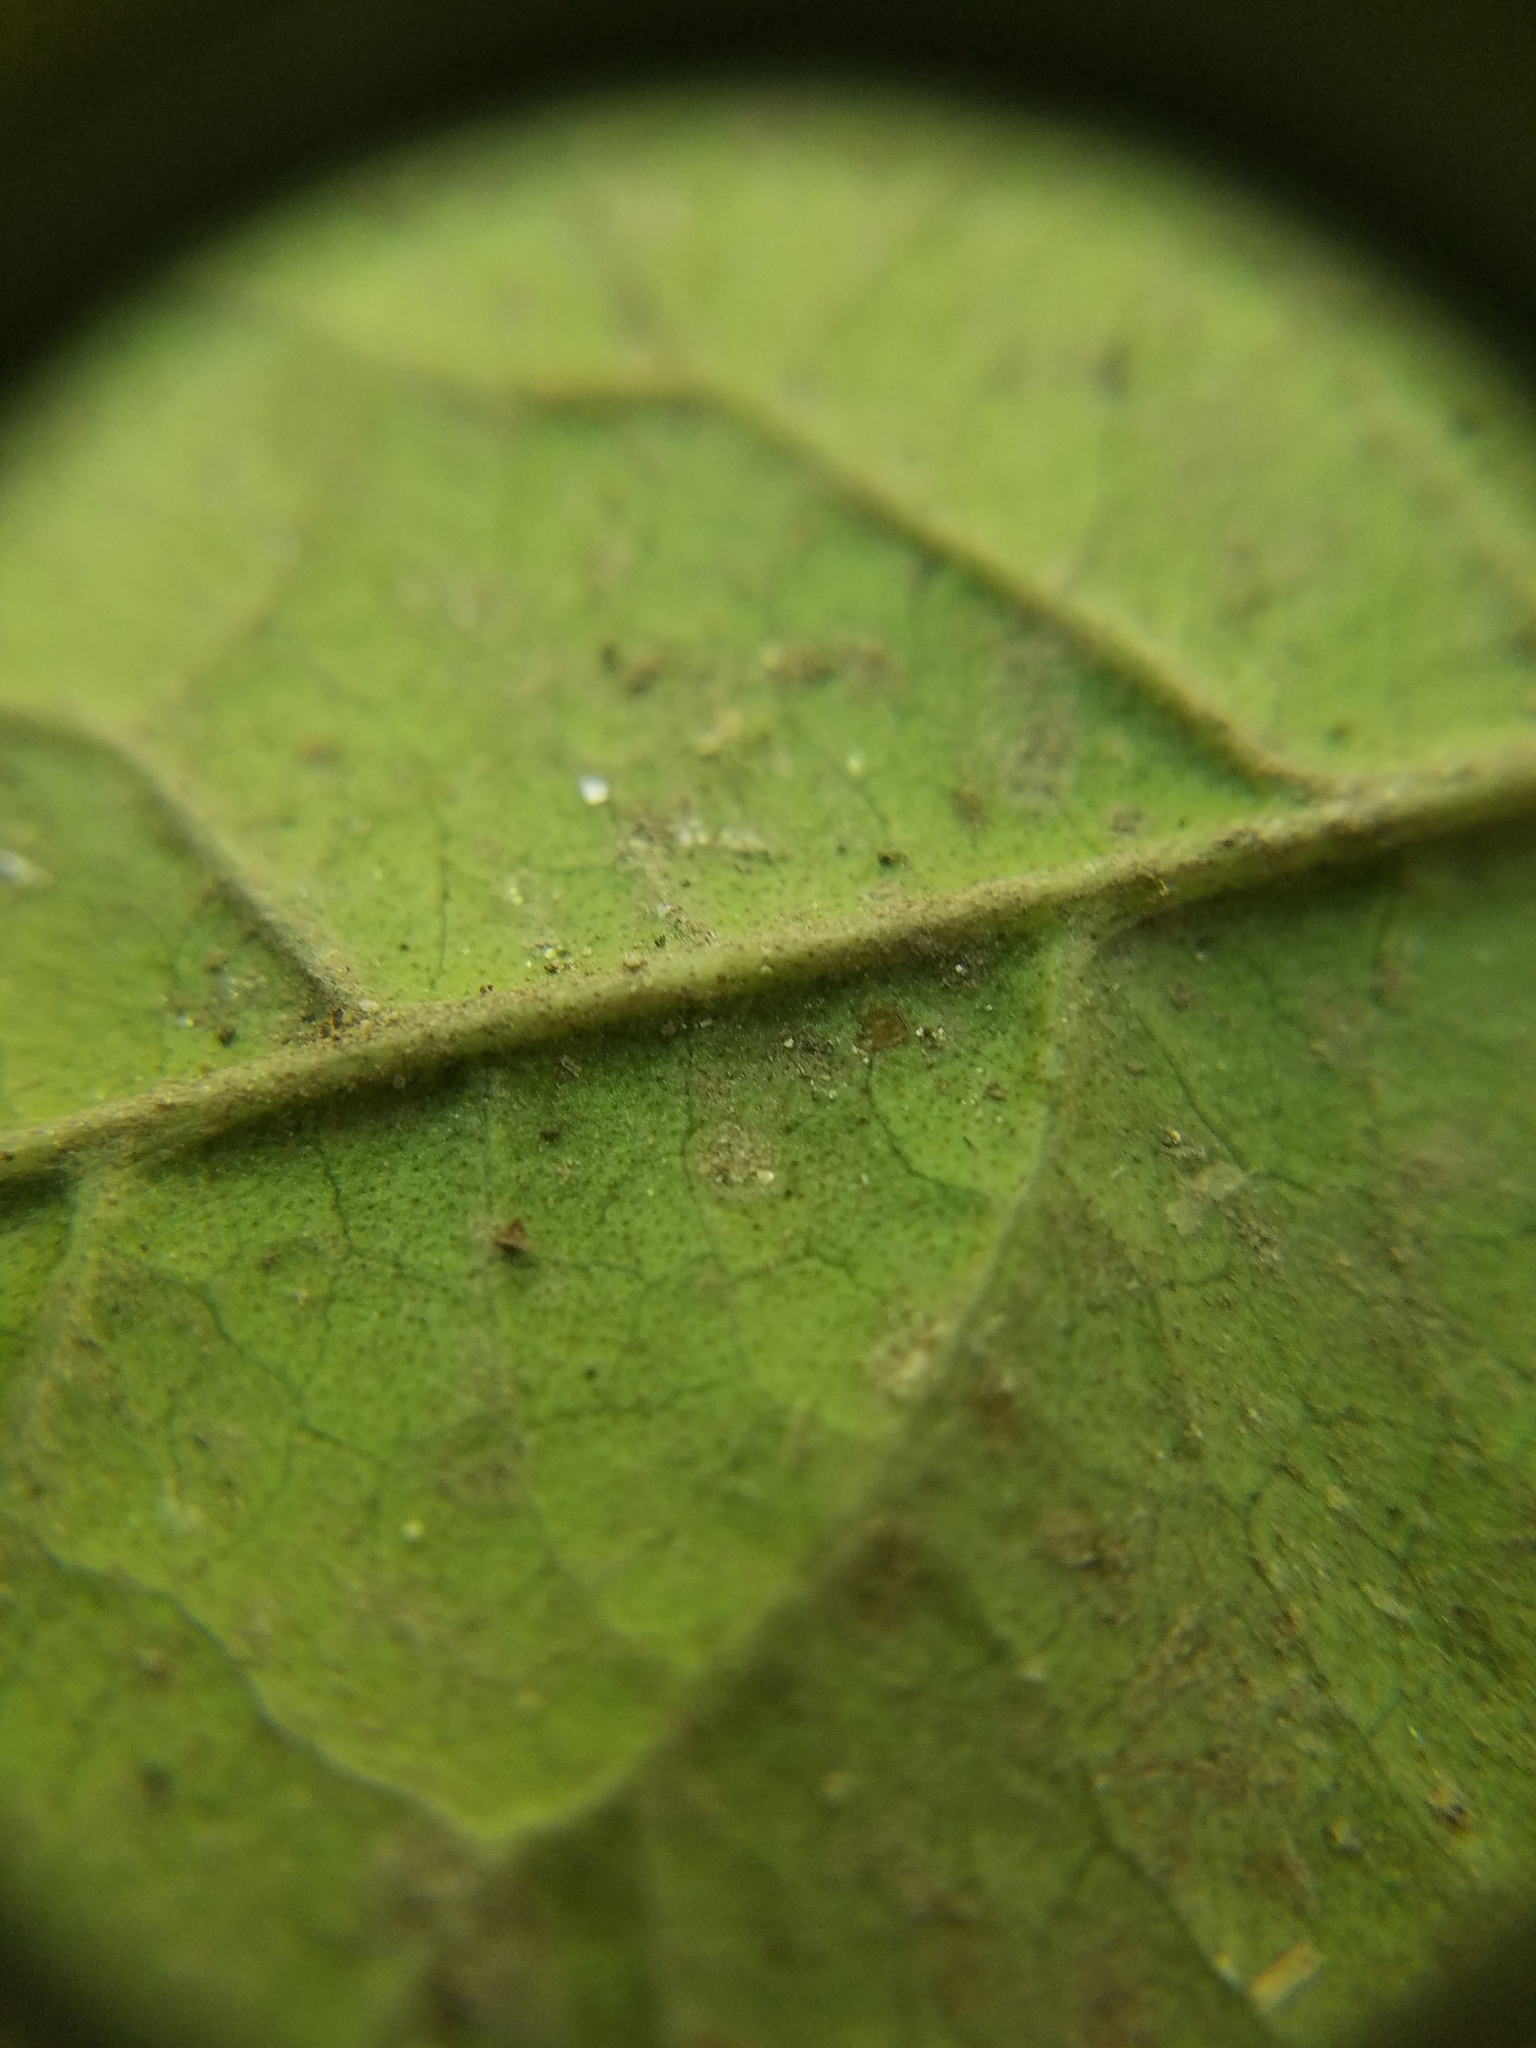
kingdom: Plantae
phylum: Tracheophyta
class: Magnoliopsida
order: Dipsacales
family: Viburnaceae
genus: Viburnum
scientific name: Viburnum nudum
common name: Possum haw
